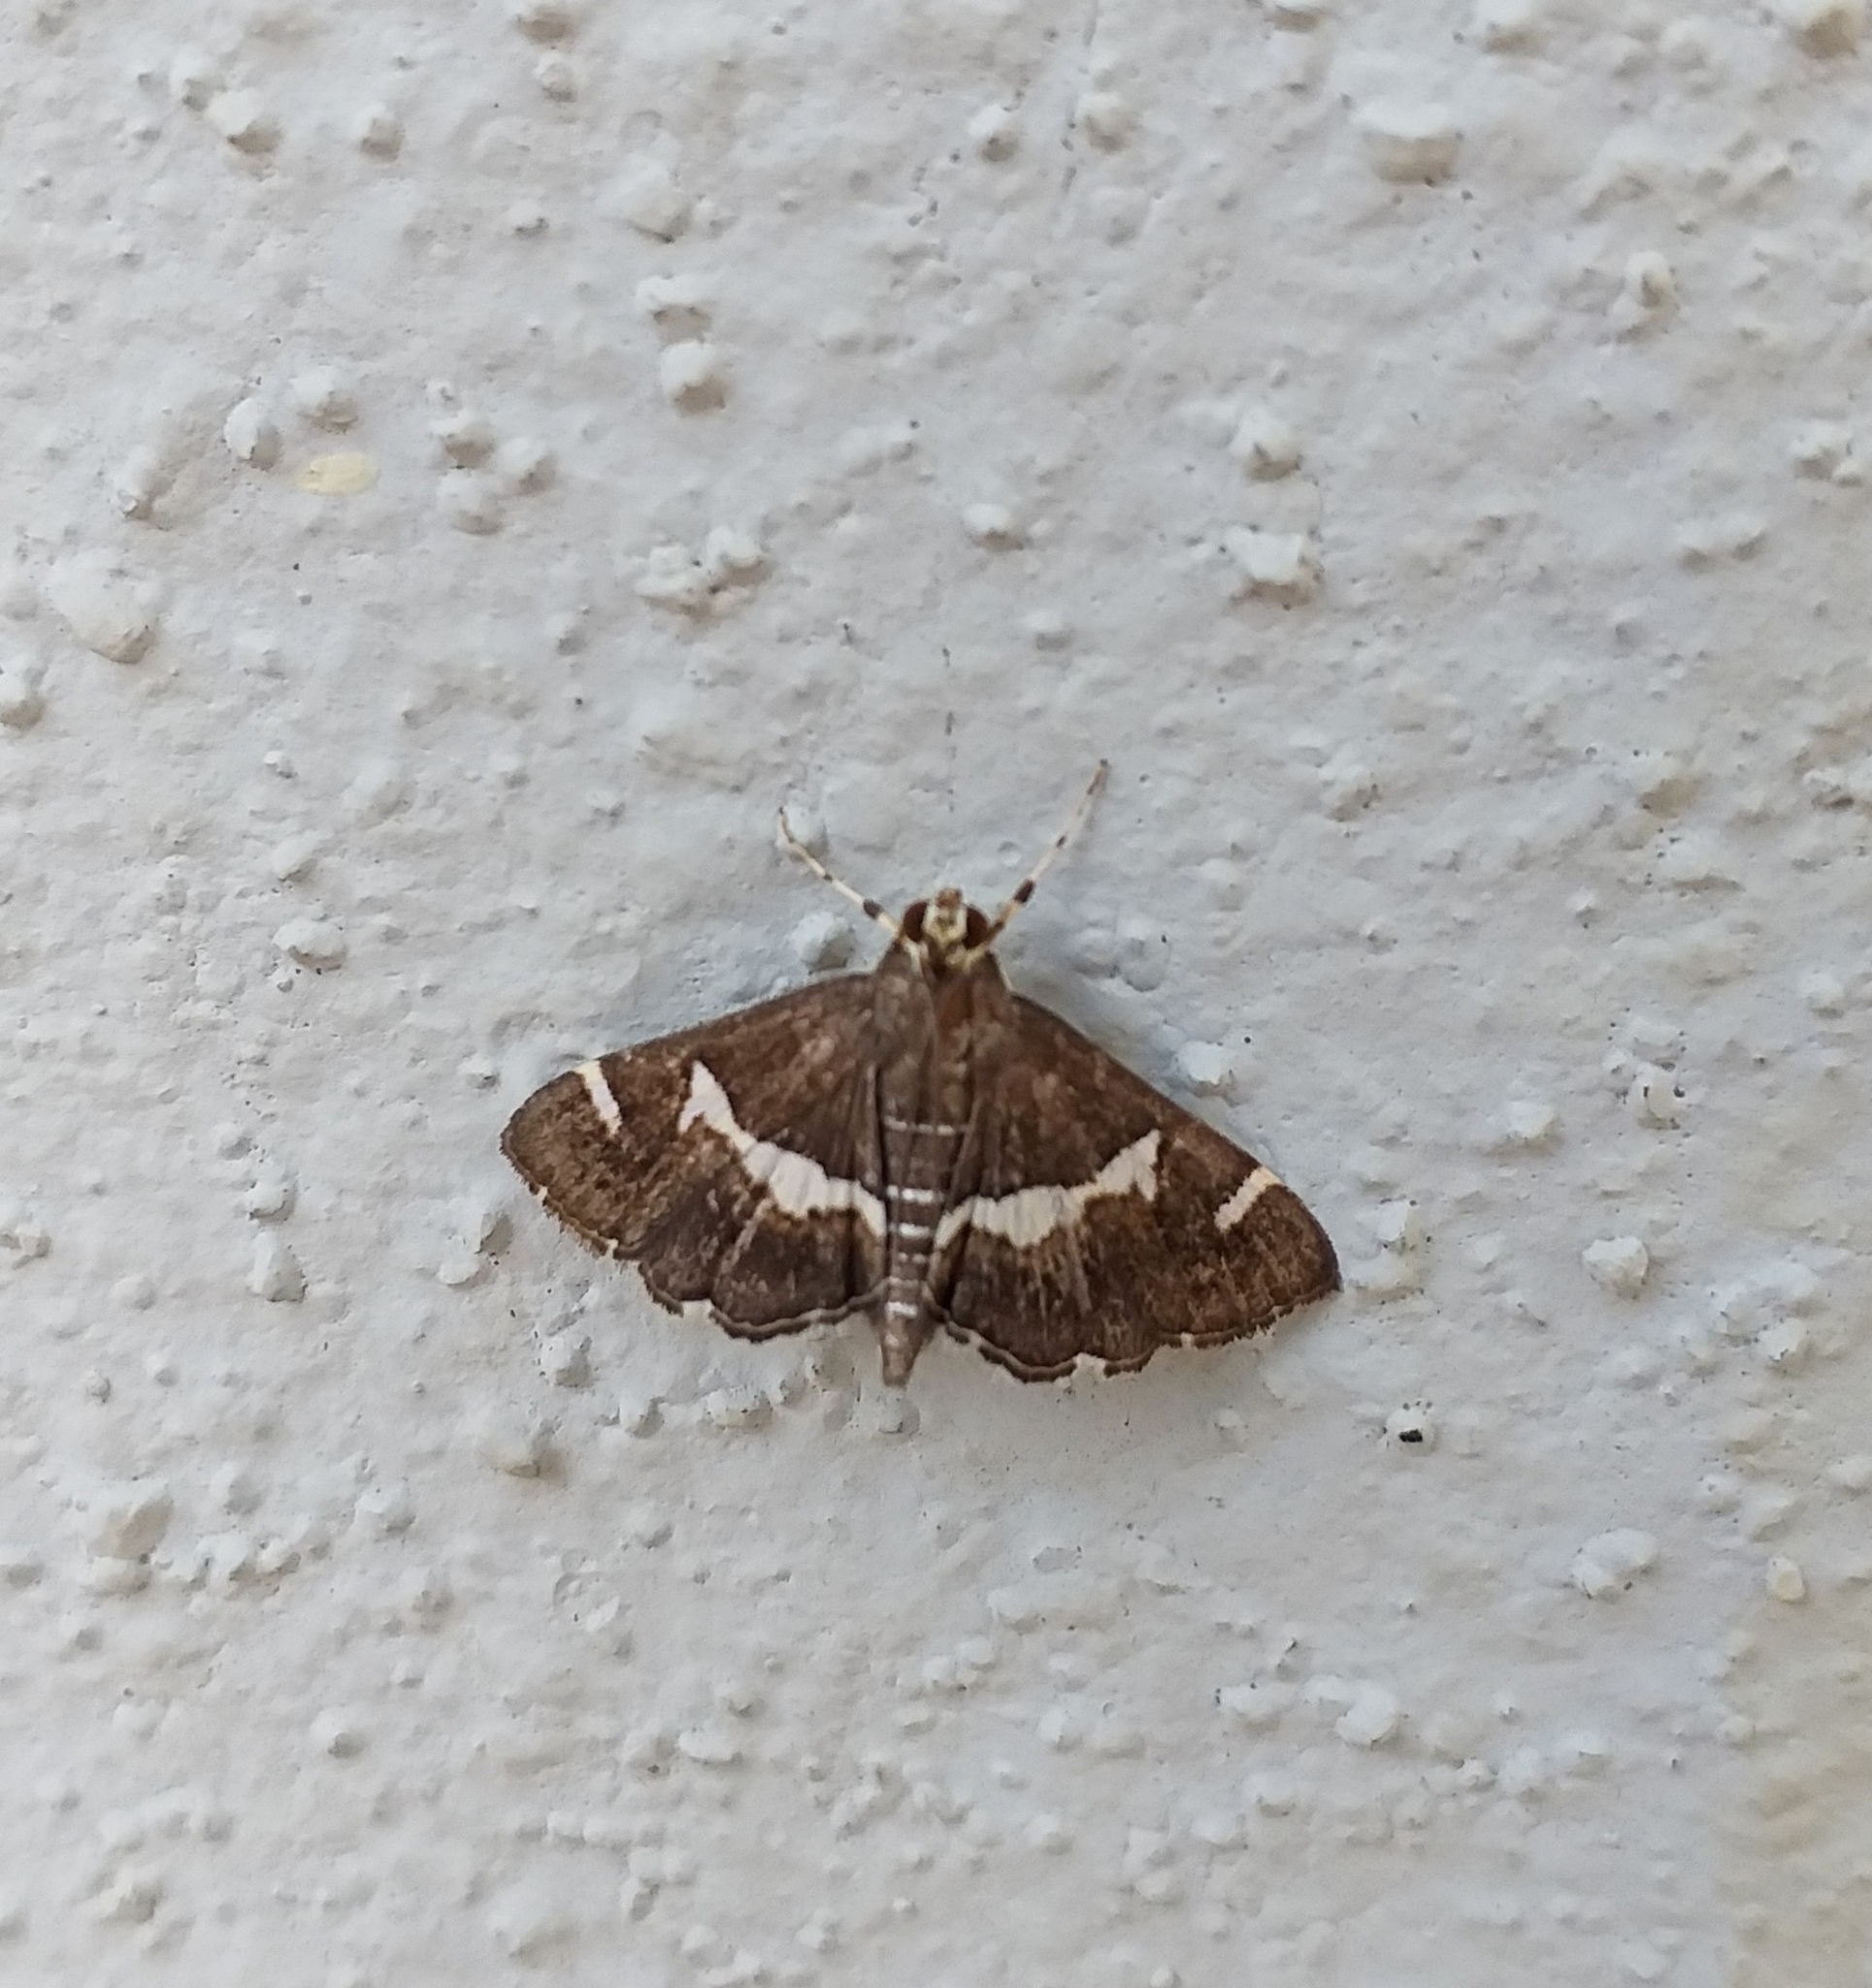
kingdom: Animalia
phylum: Arthropoda
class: Insecta
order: Lepidoptera
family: Crambidae
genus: Spoladea
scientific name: Spoladea recurvalis
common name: Beet webworm moth
